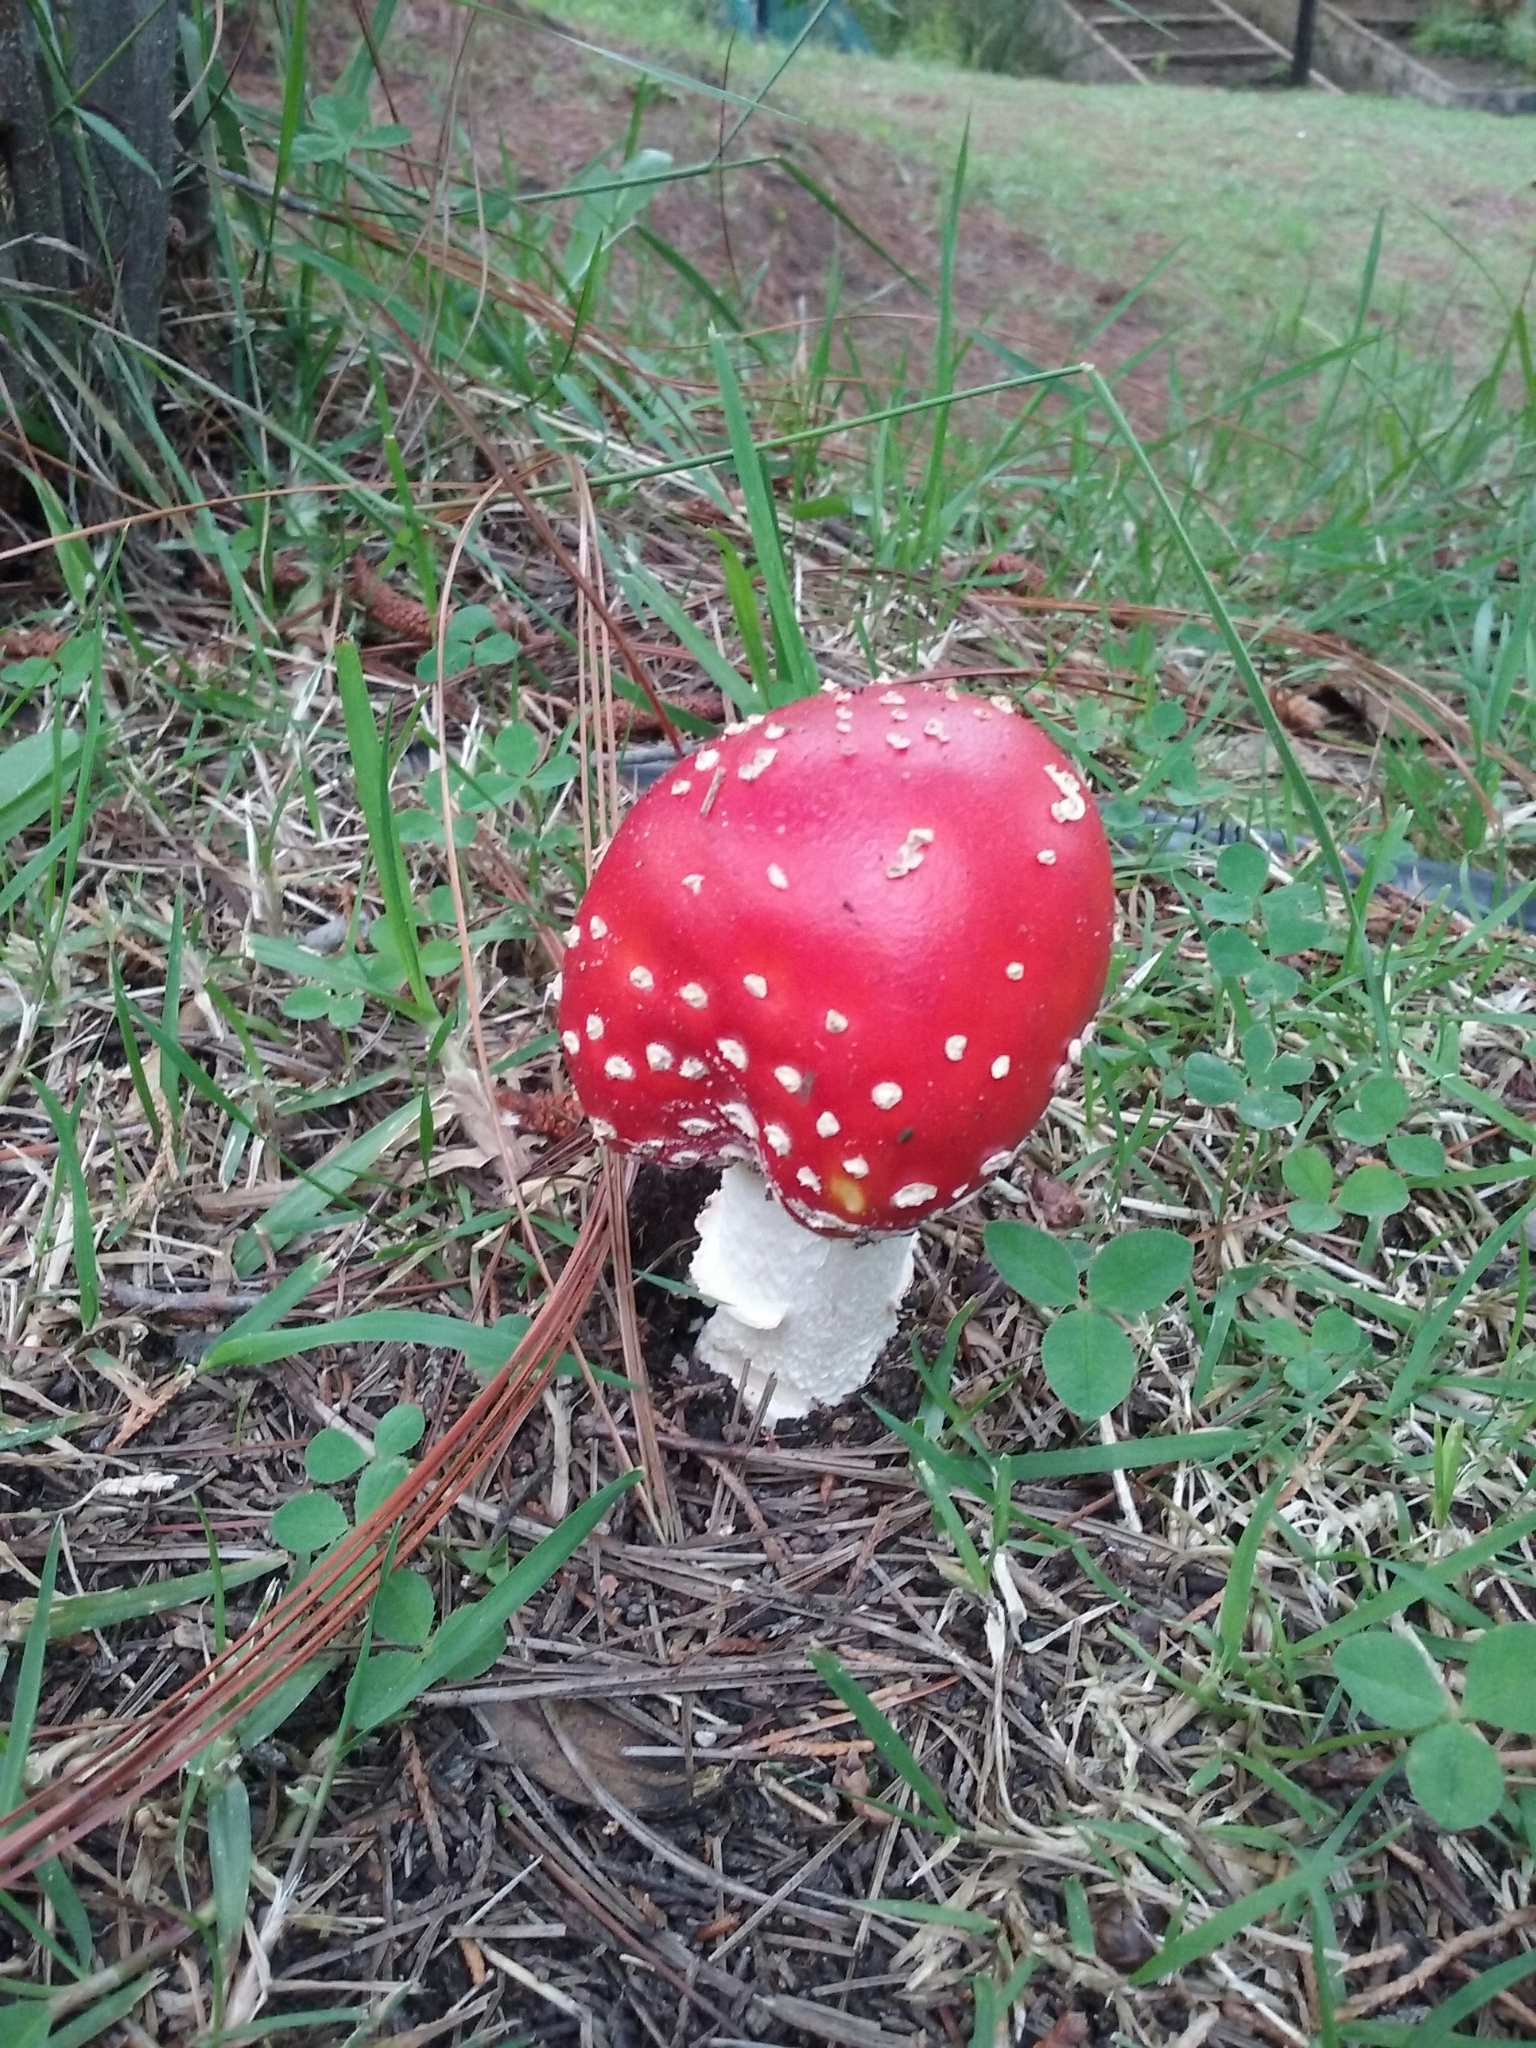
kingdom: Fungi
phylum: Basidiomycota
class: Agaricomycetes
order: Agaricales
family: Amanitaceae
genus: Amanita
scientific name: Amanita muscaria
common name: Fly agaric
